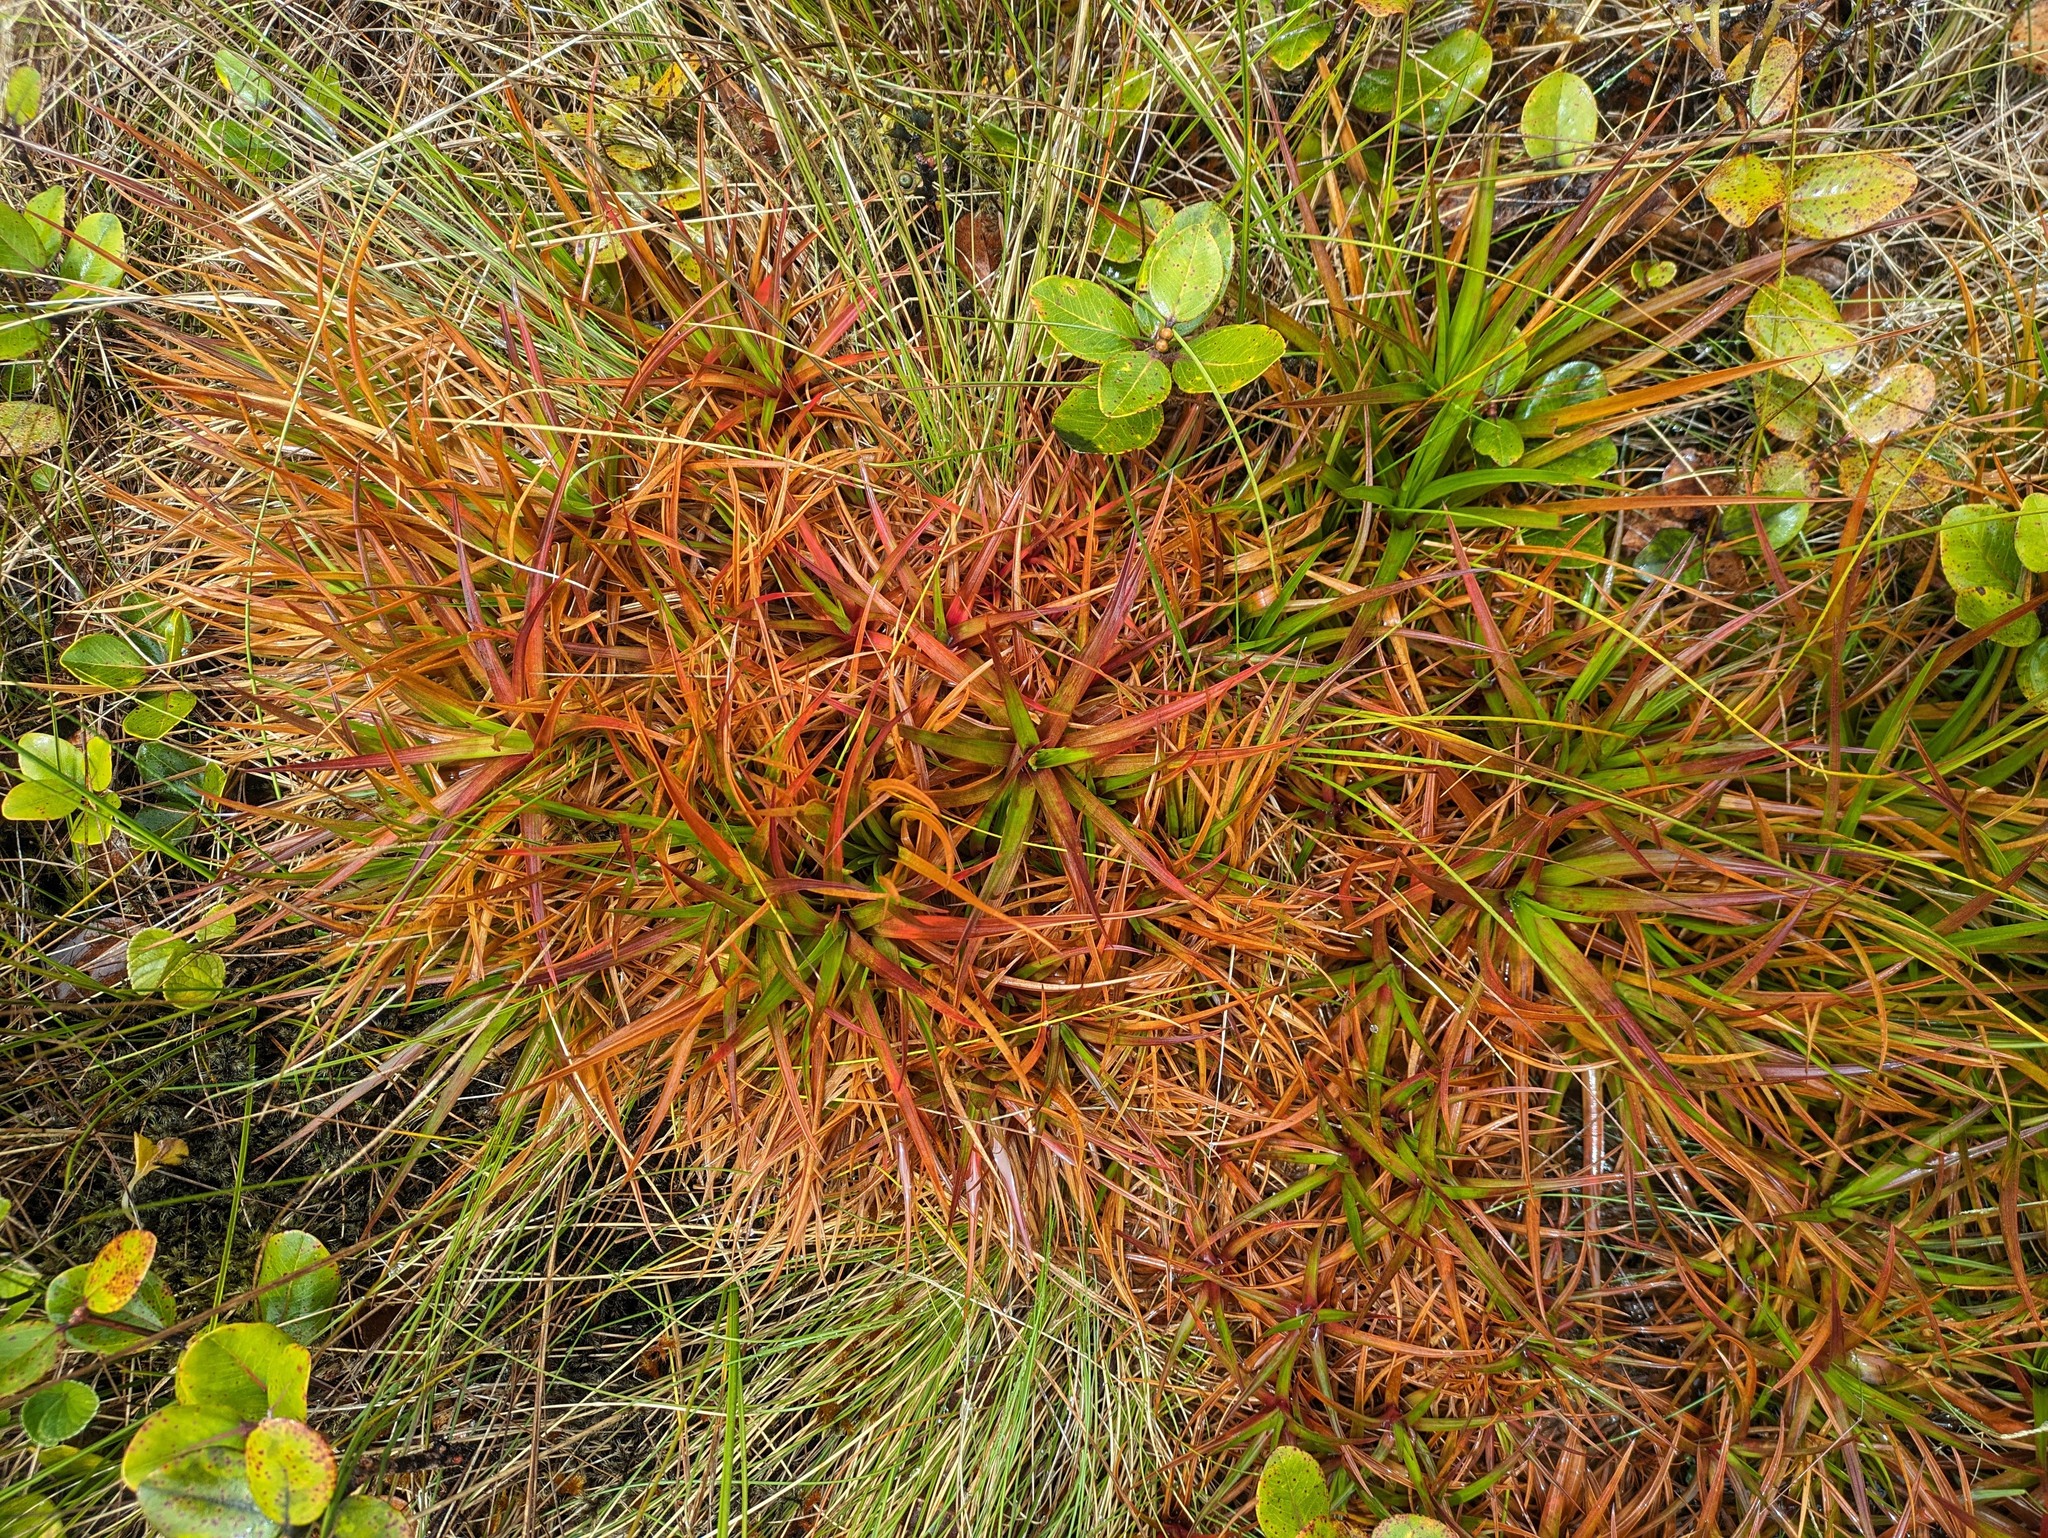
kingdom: Plantae
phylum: Tracheophyta
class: Liliopsida
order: Poales
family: Juncaceae
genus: Juncus
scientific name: Juncus planifolius
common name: Broadleaf rush
